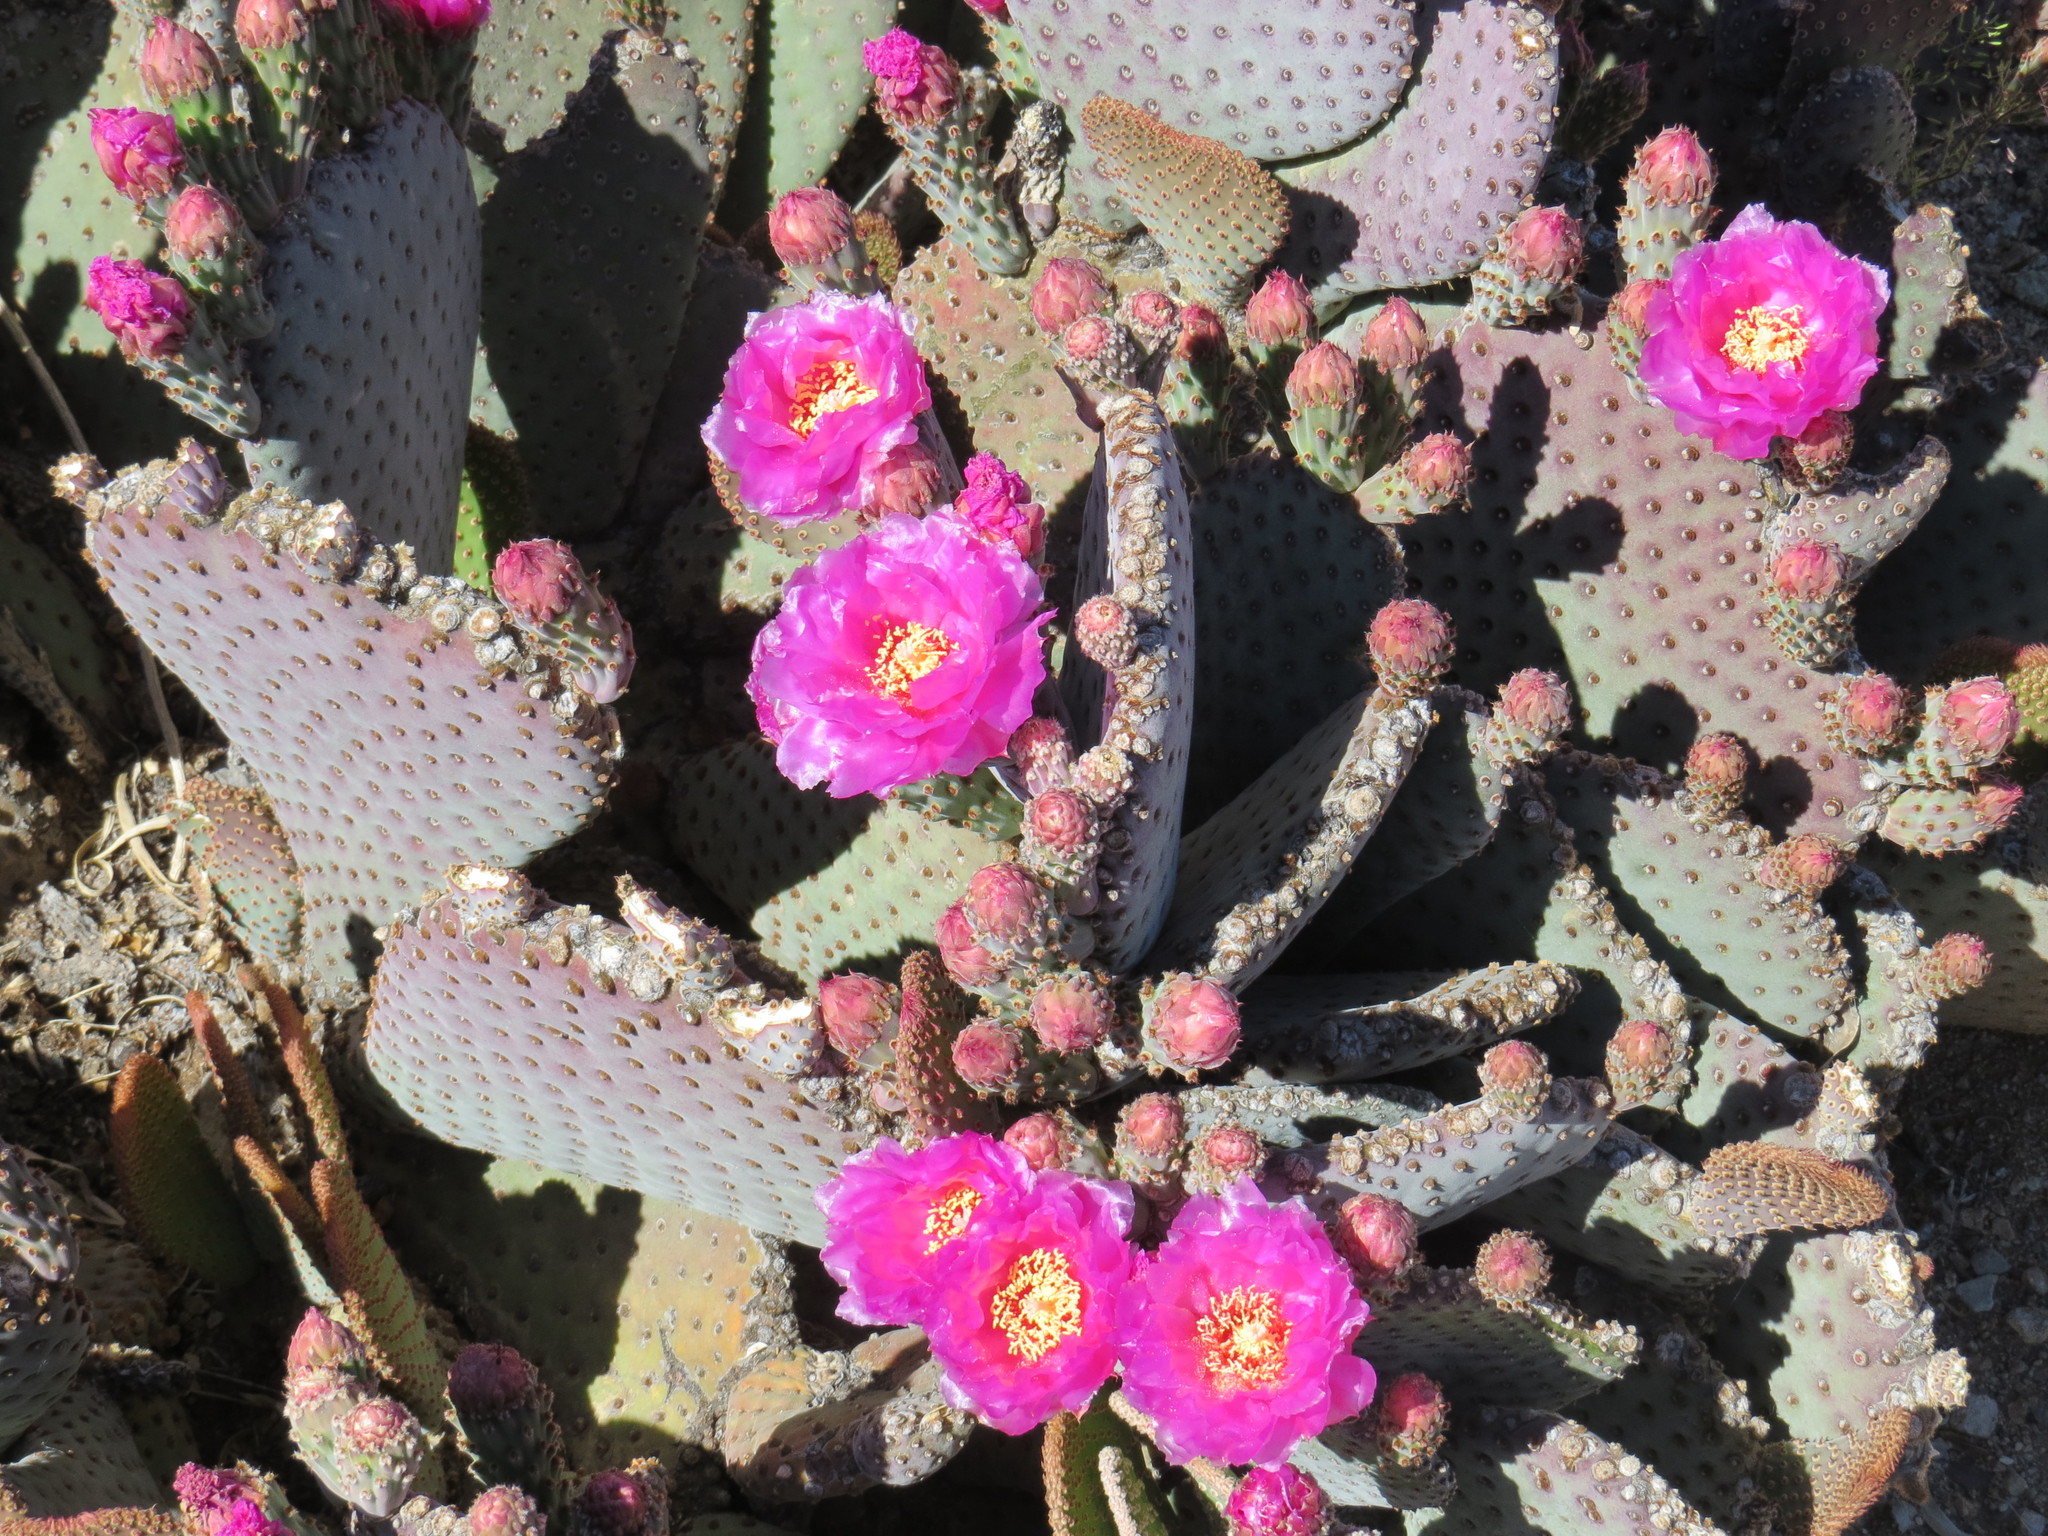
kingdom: Plantae
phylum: Tracheophyta
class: Magnoliopsida
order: Caryophyllales
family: Cactaceae
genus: Opuntia
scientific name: Opuntia basilaris
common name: Beavertail prickly-pear
